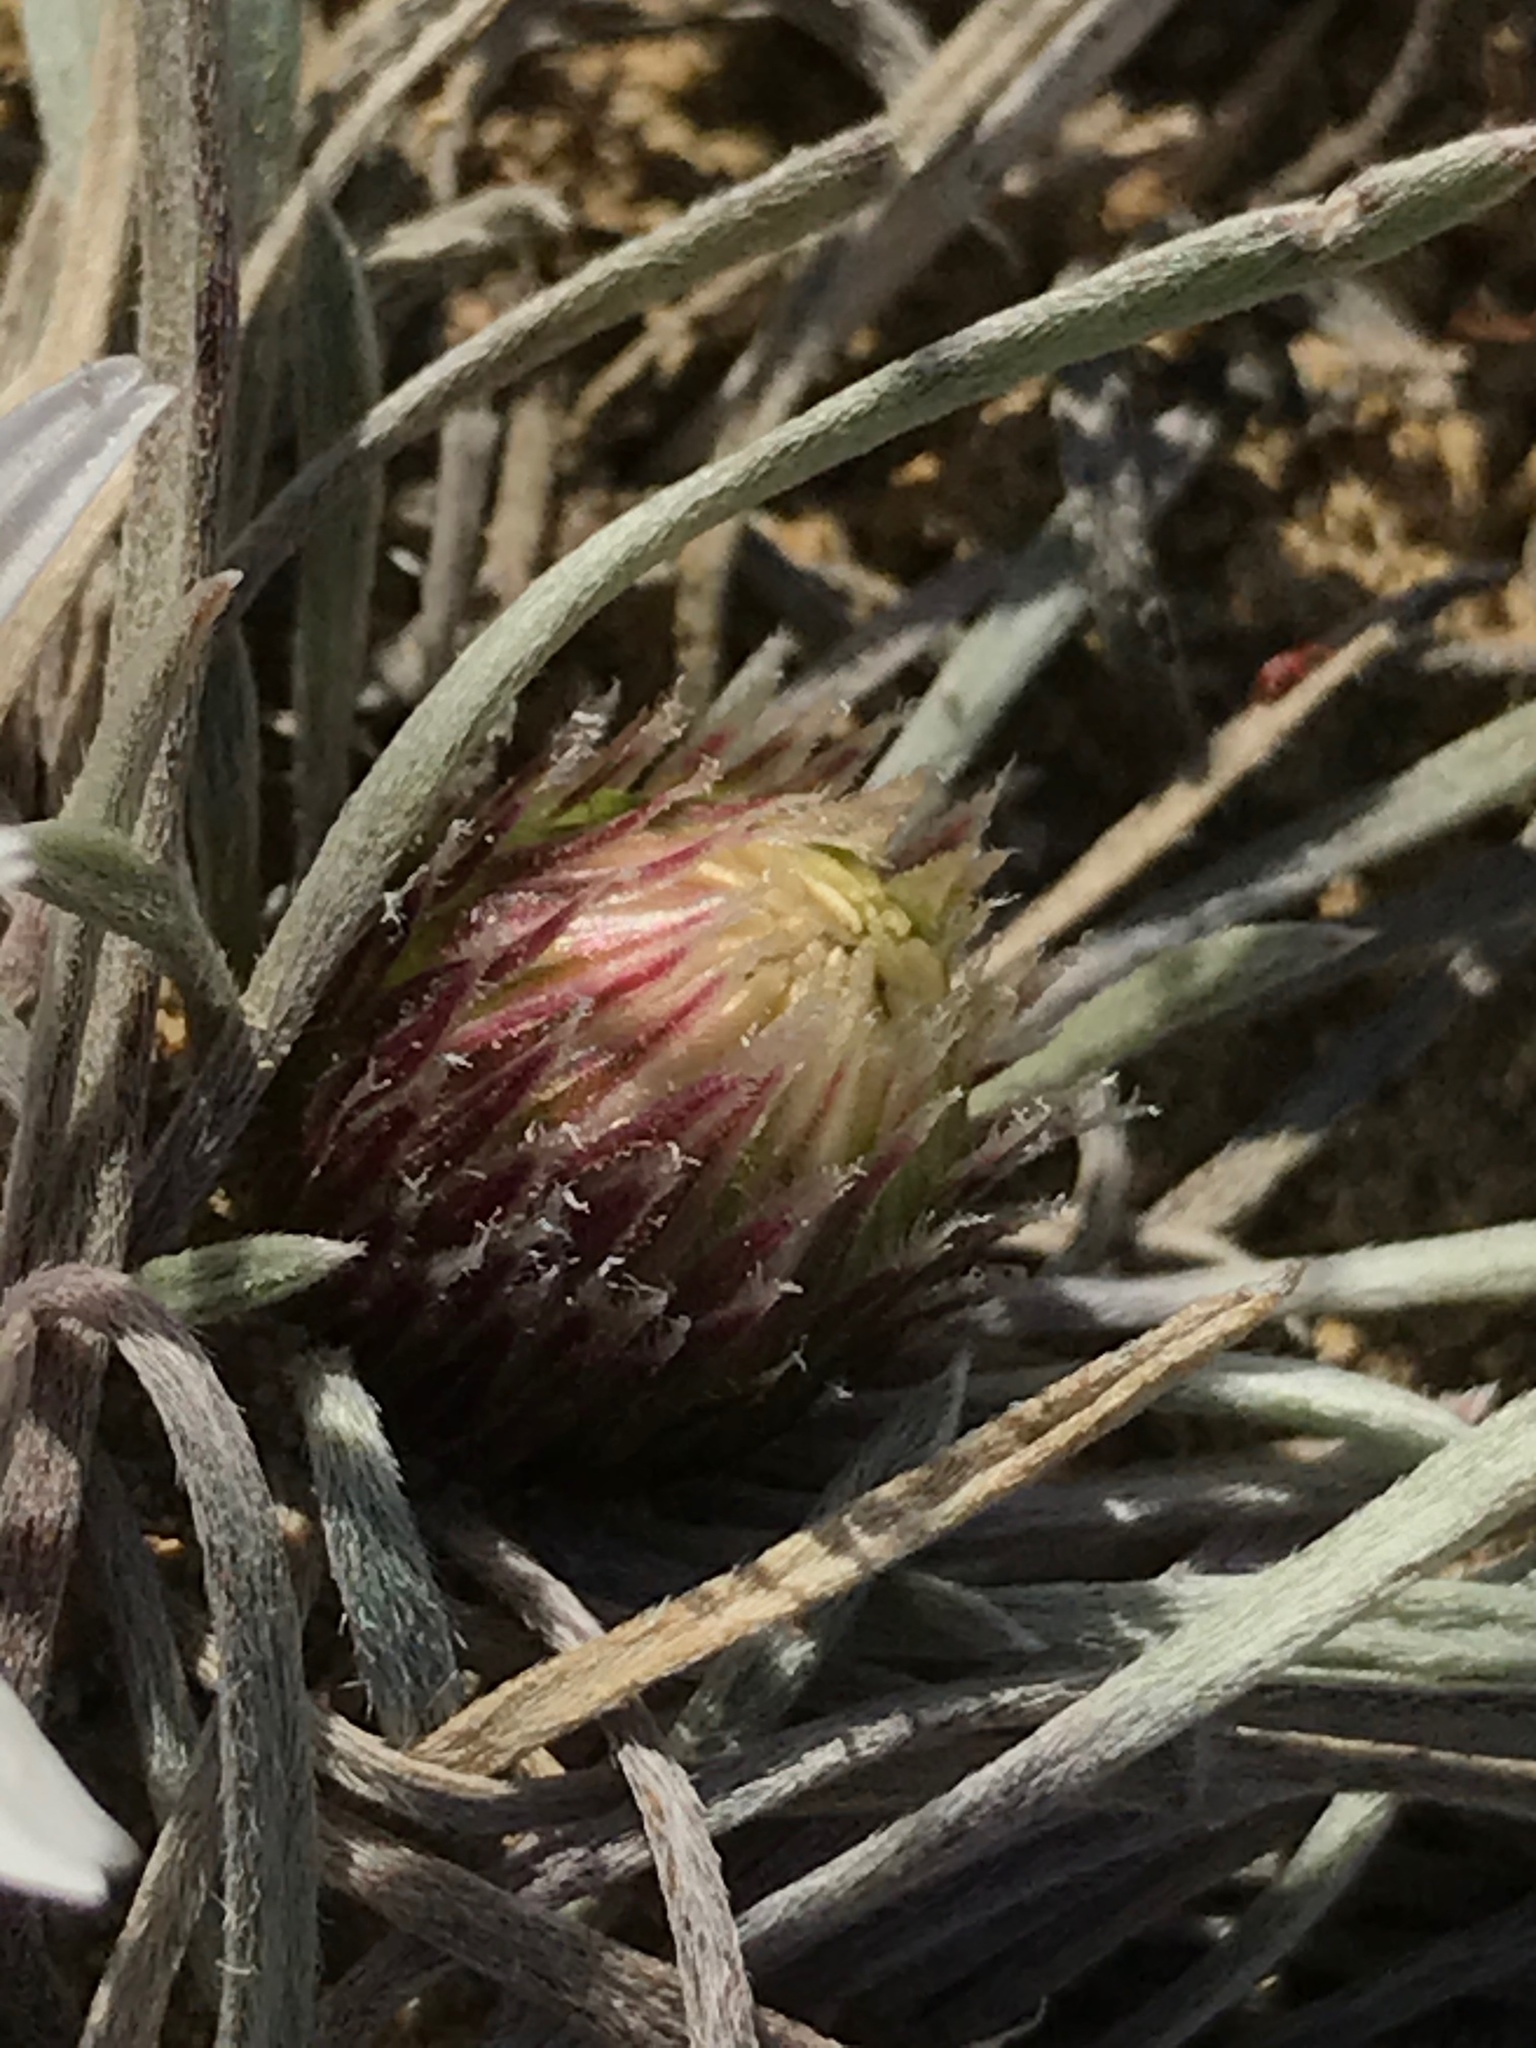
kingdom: Plantae
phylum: Tracheophyta
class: Magnoliopsida
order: Asterales
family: Asteraceae
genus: Townsendia
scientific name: Townsendia hookeri
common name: Hooker's townsend daisy
